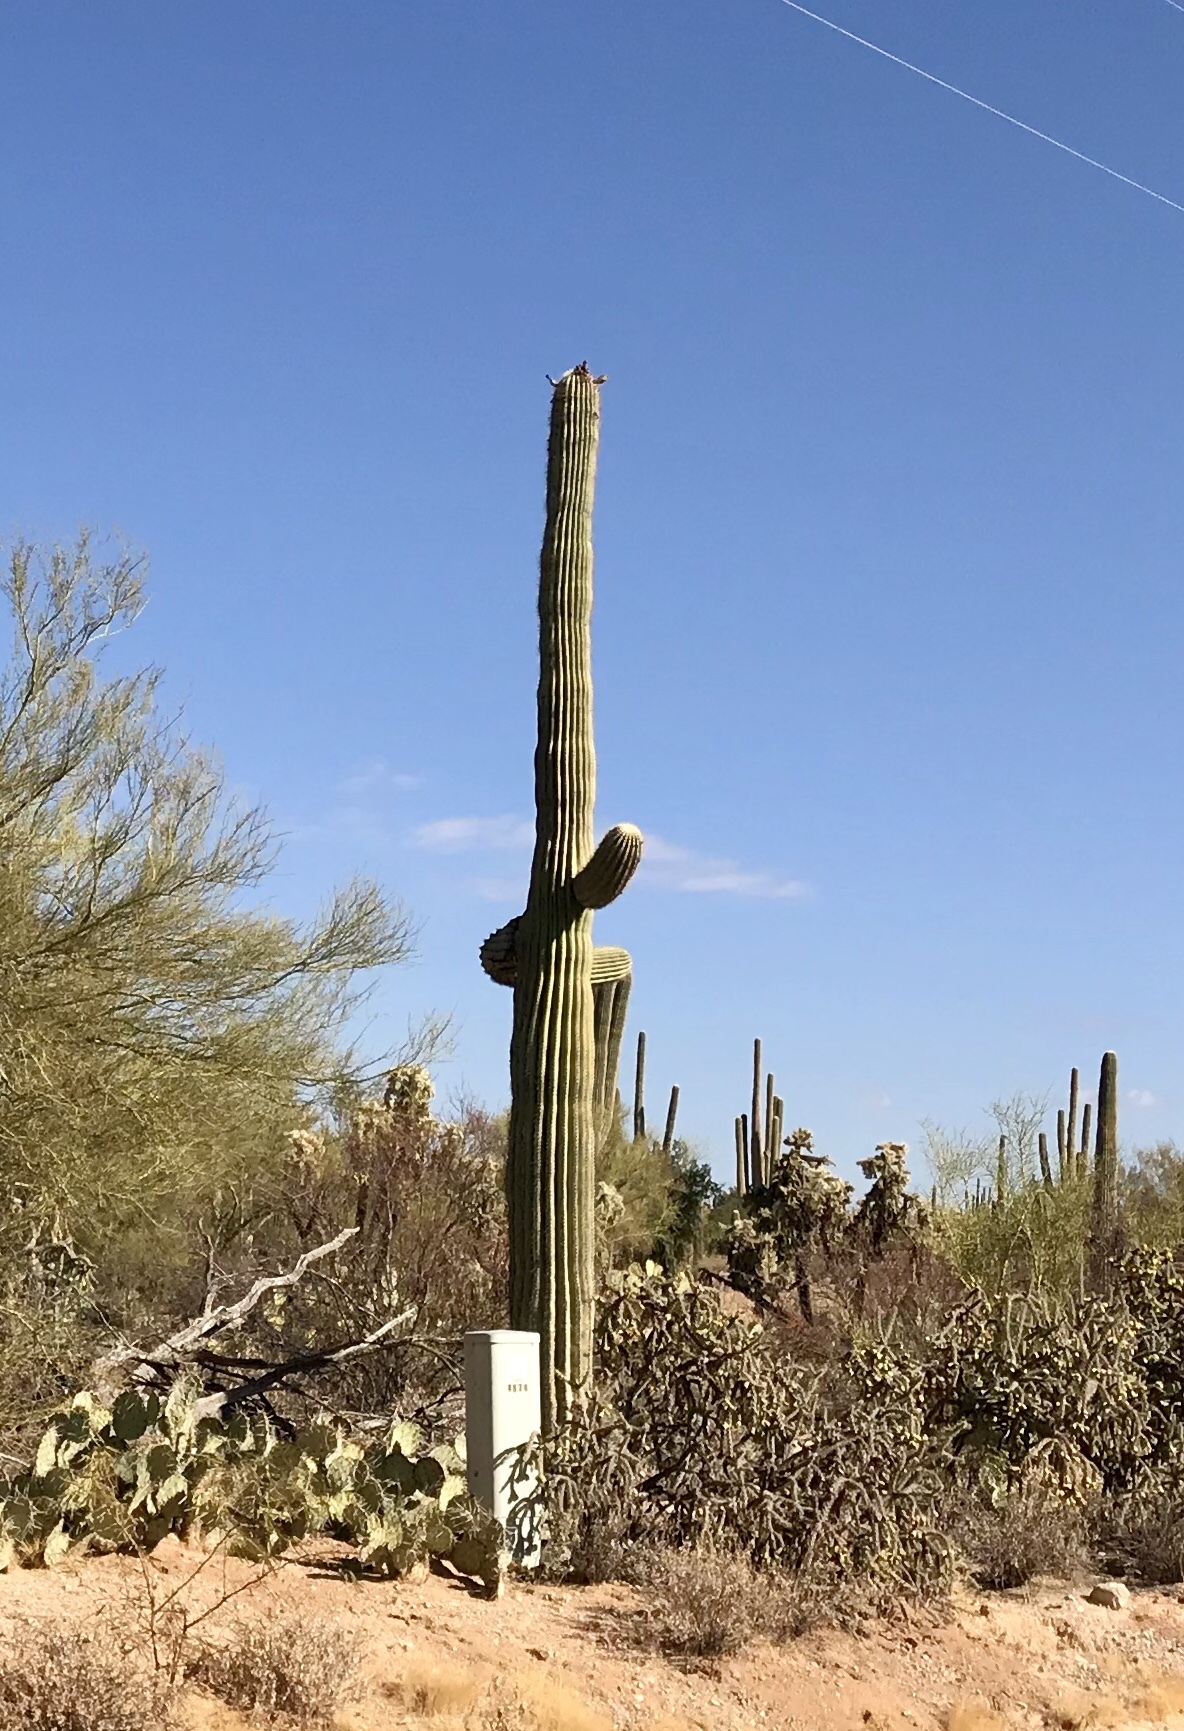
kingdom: Plantae
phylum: Tracheophyta
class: Magnoliopsida
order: Caryophyllales
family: Cactaceae
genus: Carnegiea
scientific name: Carnegiea gigantea
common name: Saguaro
